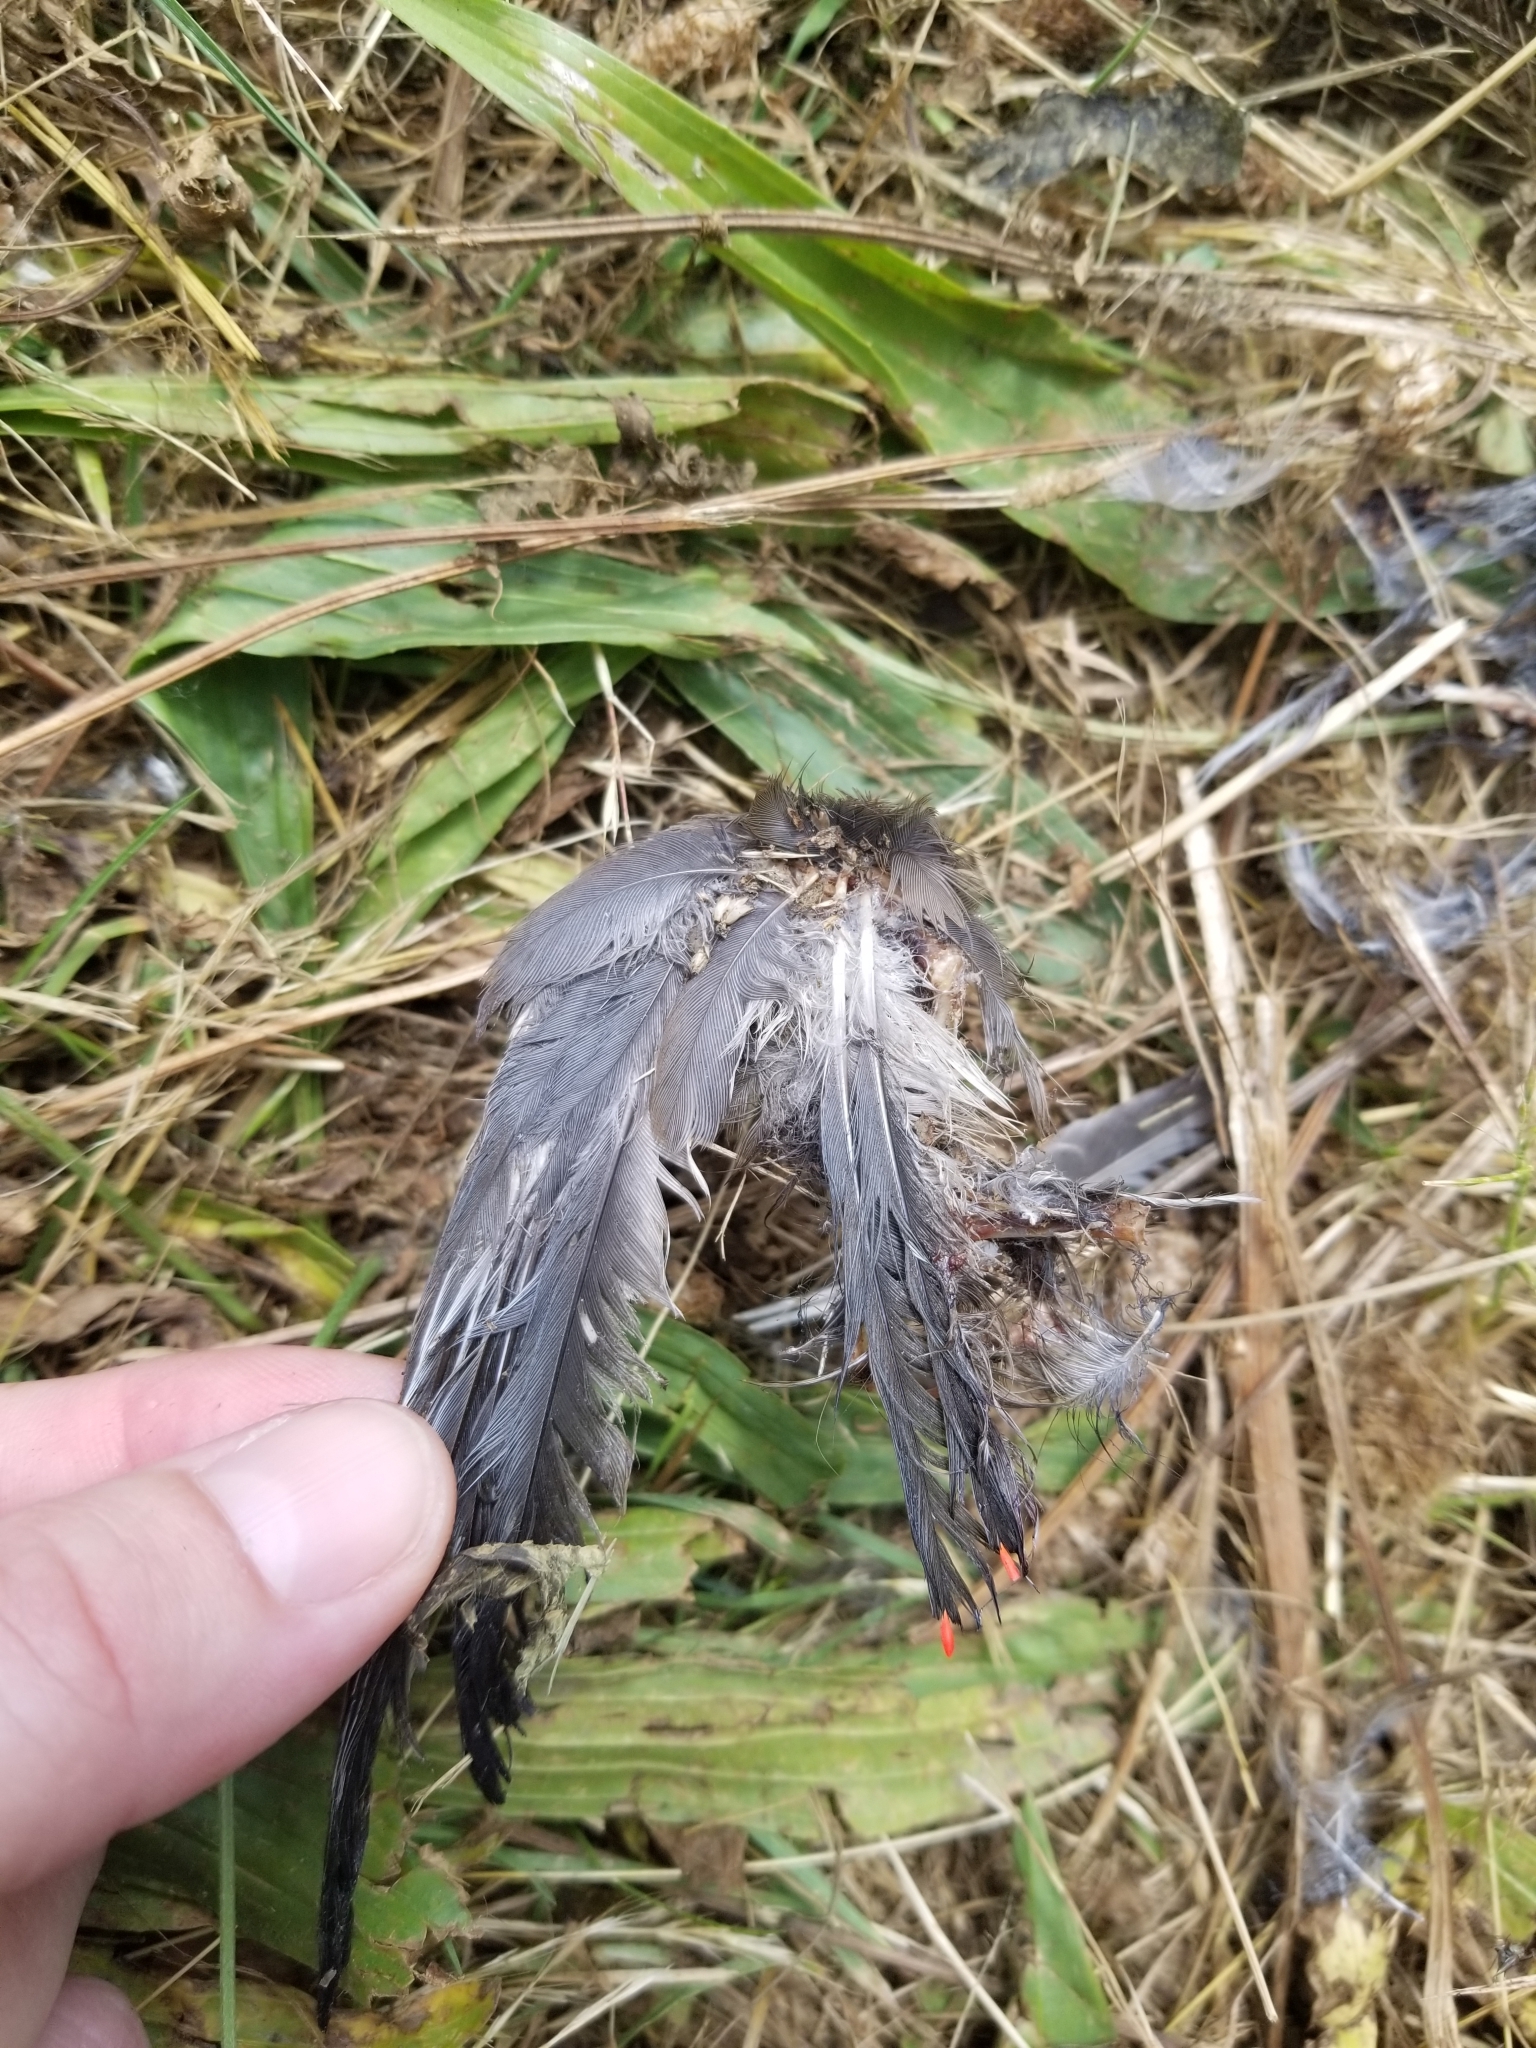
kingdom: Animalia
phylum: Chordata
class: Aves
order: Passeriformes
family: Bombycillidae
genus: Bombycilla
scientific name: Bombycilla cedrorum
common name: Cedar waxwing
